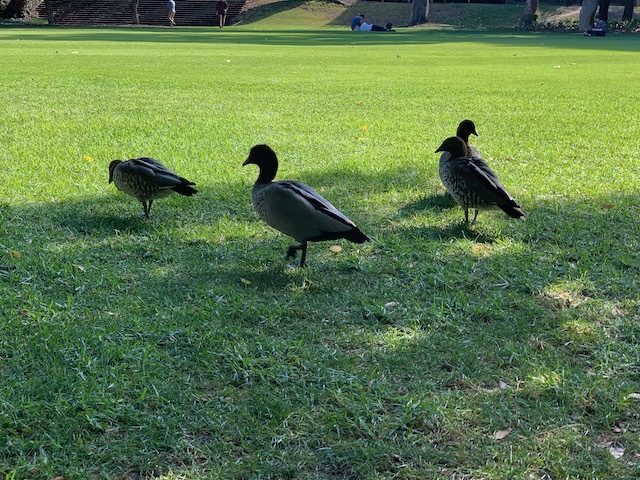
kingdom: Animalia
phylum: Chordata
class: Aves
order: Anseriformes
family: Anatidae
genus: Chenonetta
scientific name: Chenonetta jubata
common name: Maned duck
